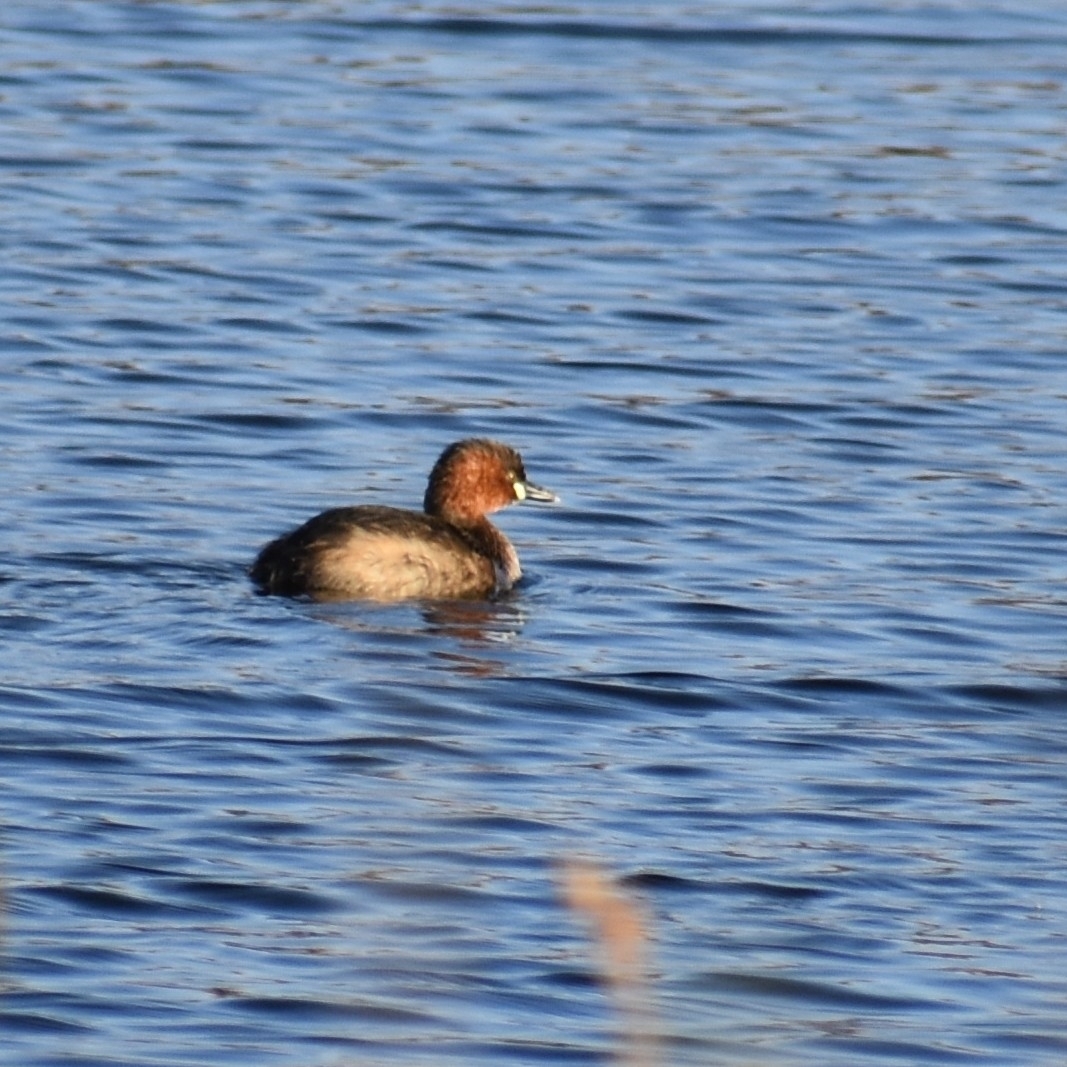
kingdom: Animalia
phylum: Chordata
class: Aves
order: Podicipediformes
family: Podicipedidae
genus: Tachybaptus
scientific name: Tachybaptus ruficollis
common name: Little grebe
